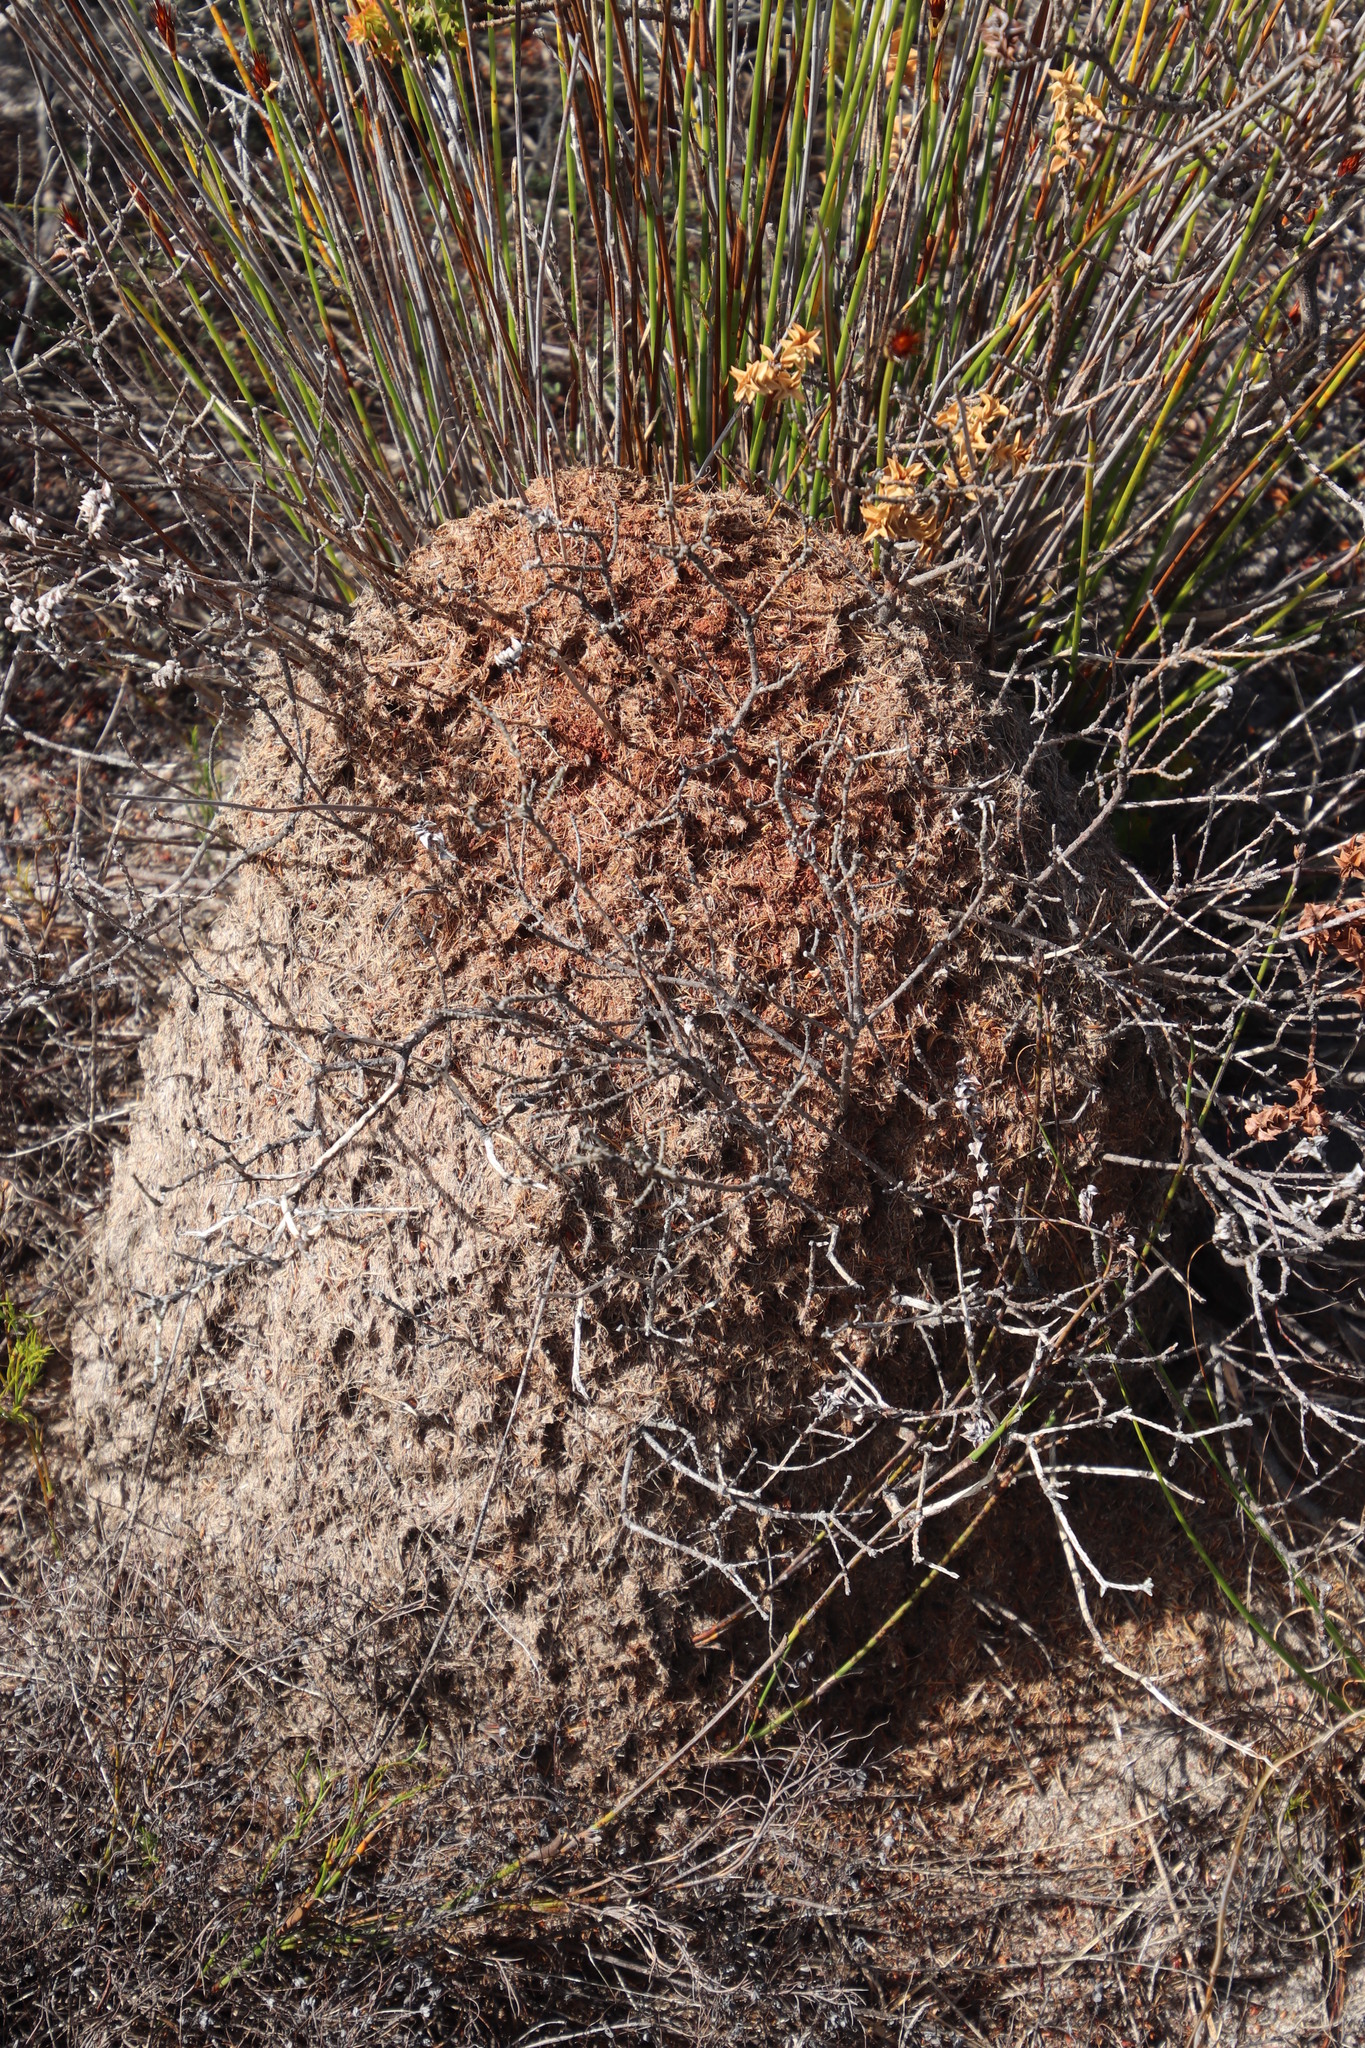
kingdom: Animalia
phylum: Arthropoda
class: Insecta
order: Hymenoptera
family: Formicidae
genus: Crematogaster
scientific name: Crematogaster peringueyi
